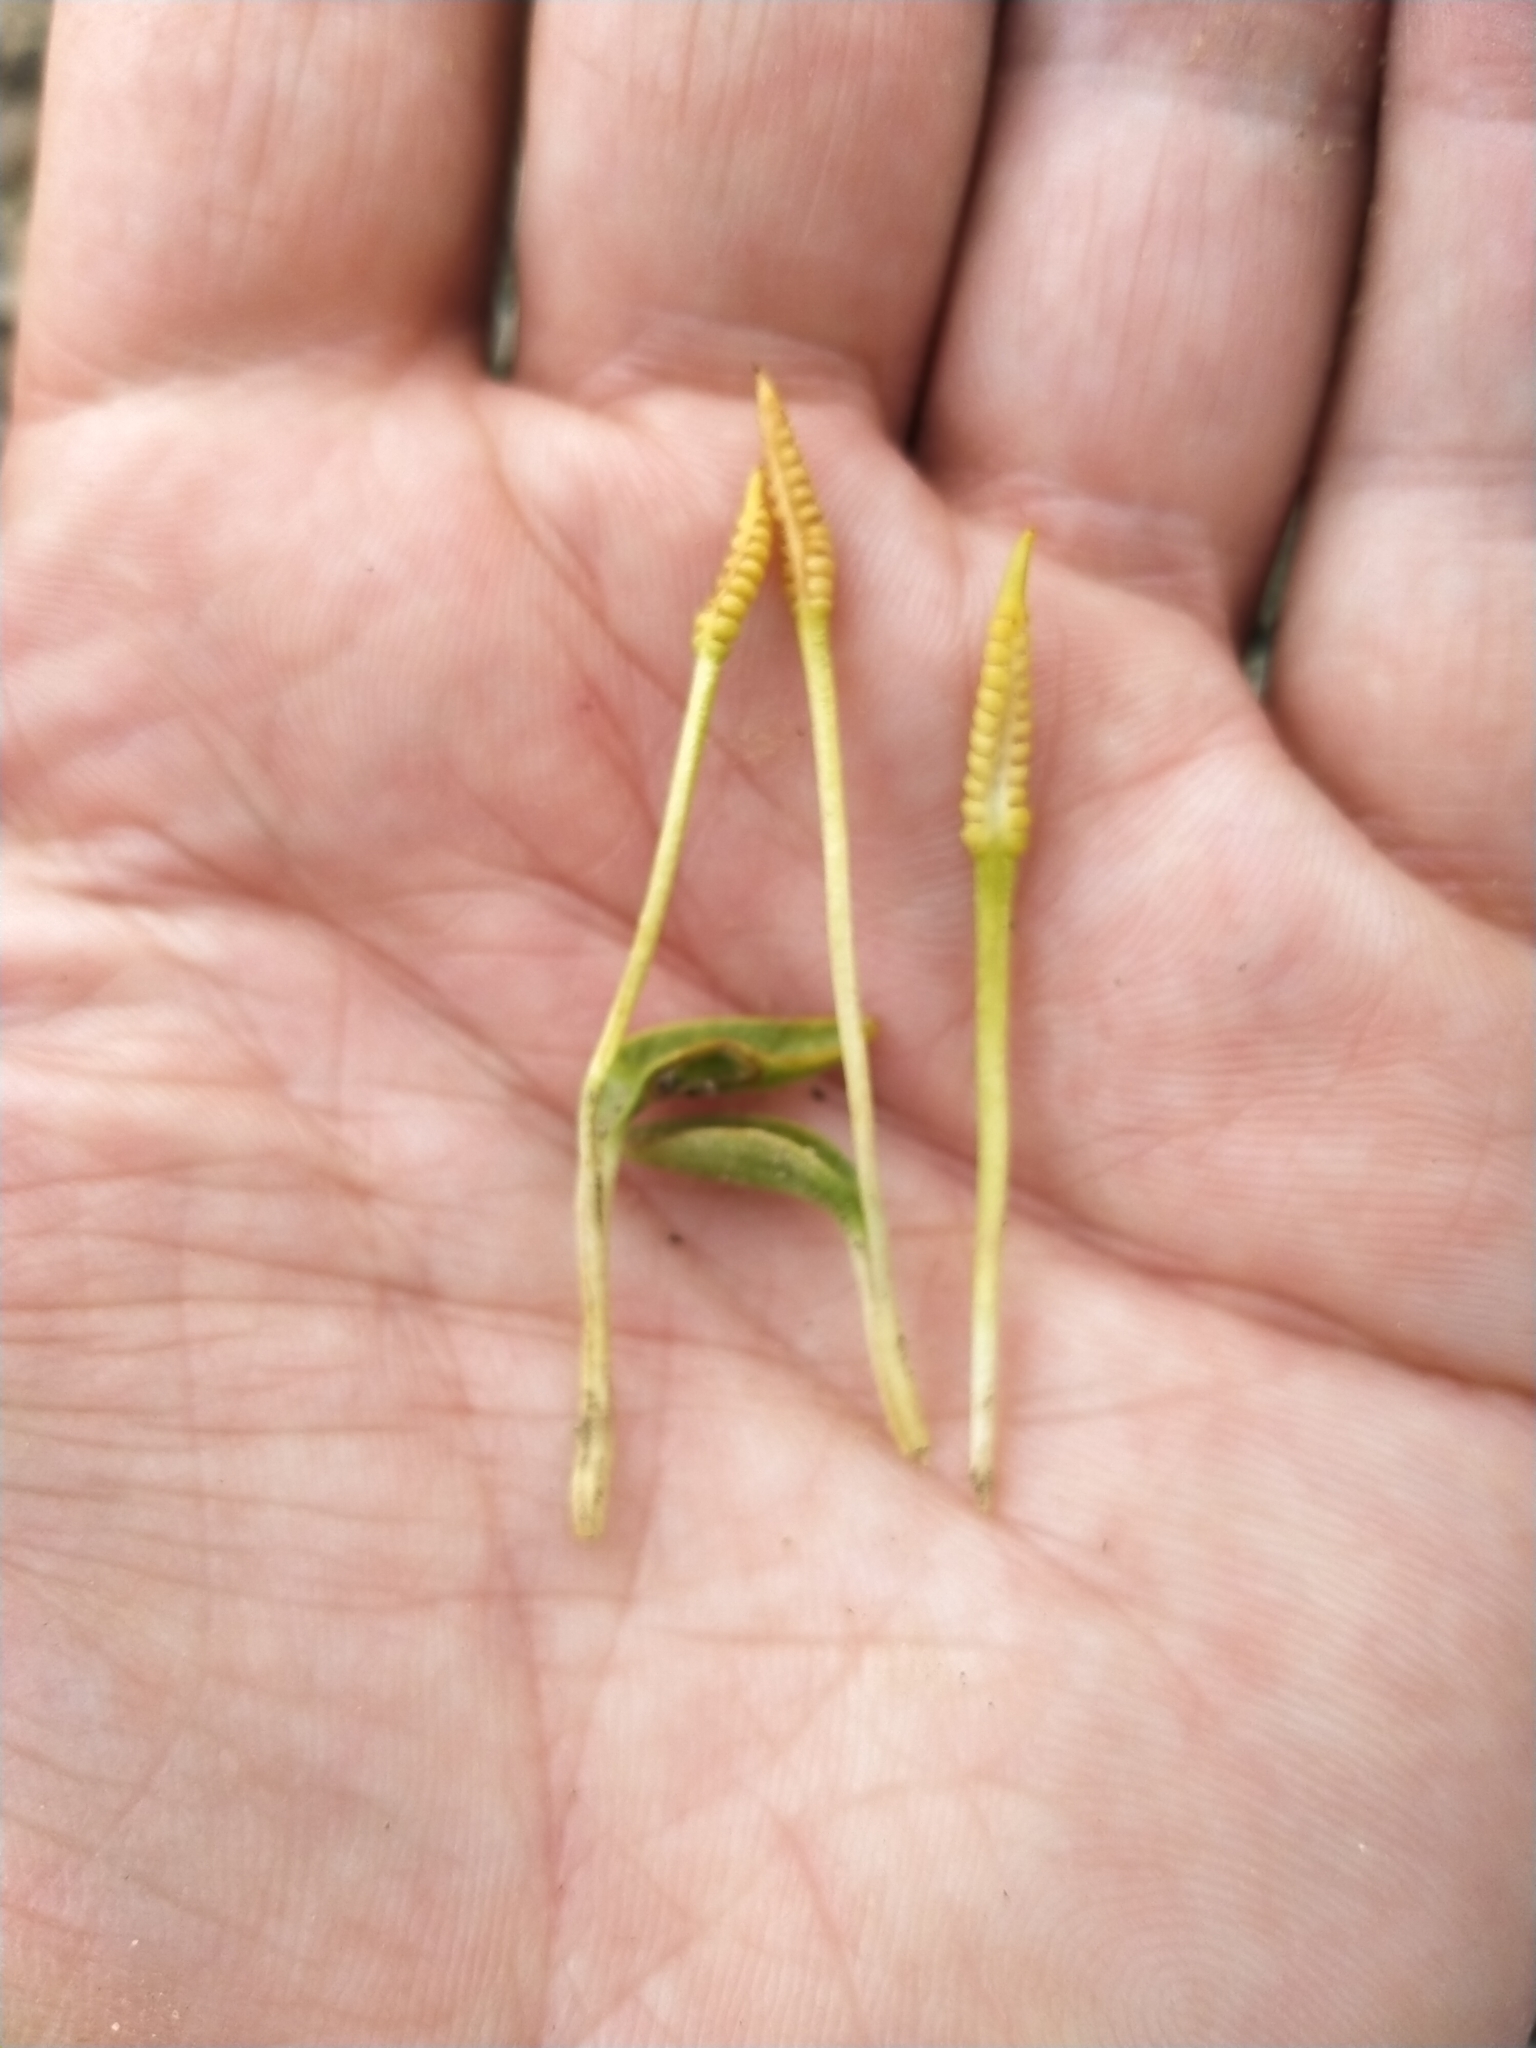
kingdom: Plantae
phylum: Tracheophyta
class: Polypodiopsida
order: Ophioglossales
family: Ophioglossaceae
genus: Ophioglossum
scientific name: Ophioglossum coriaceum
